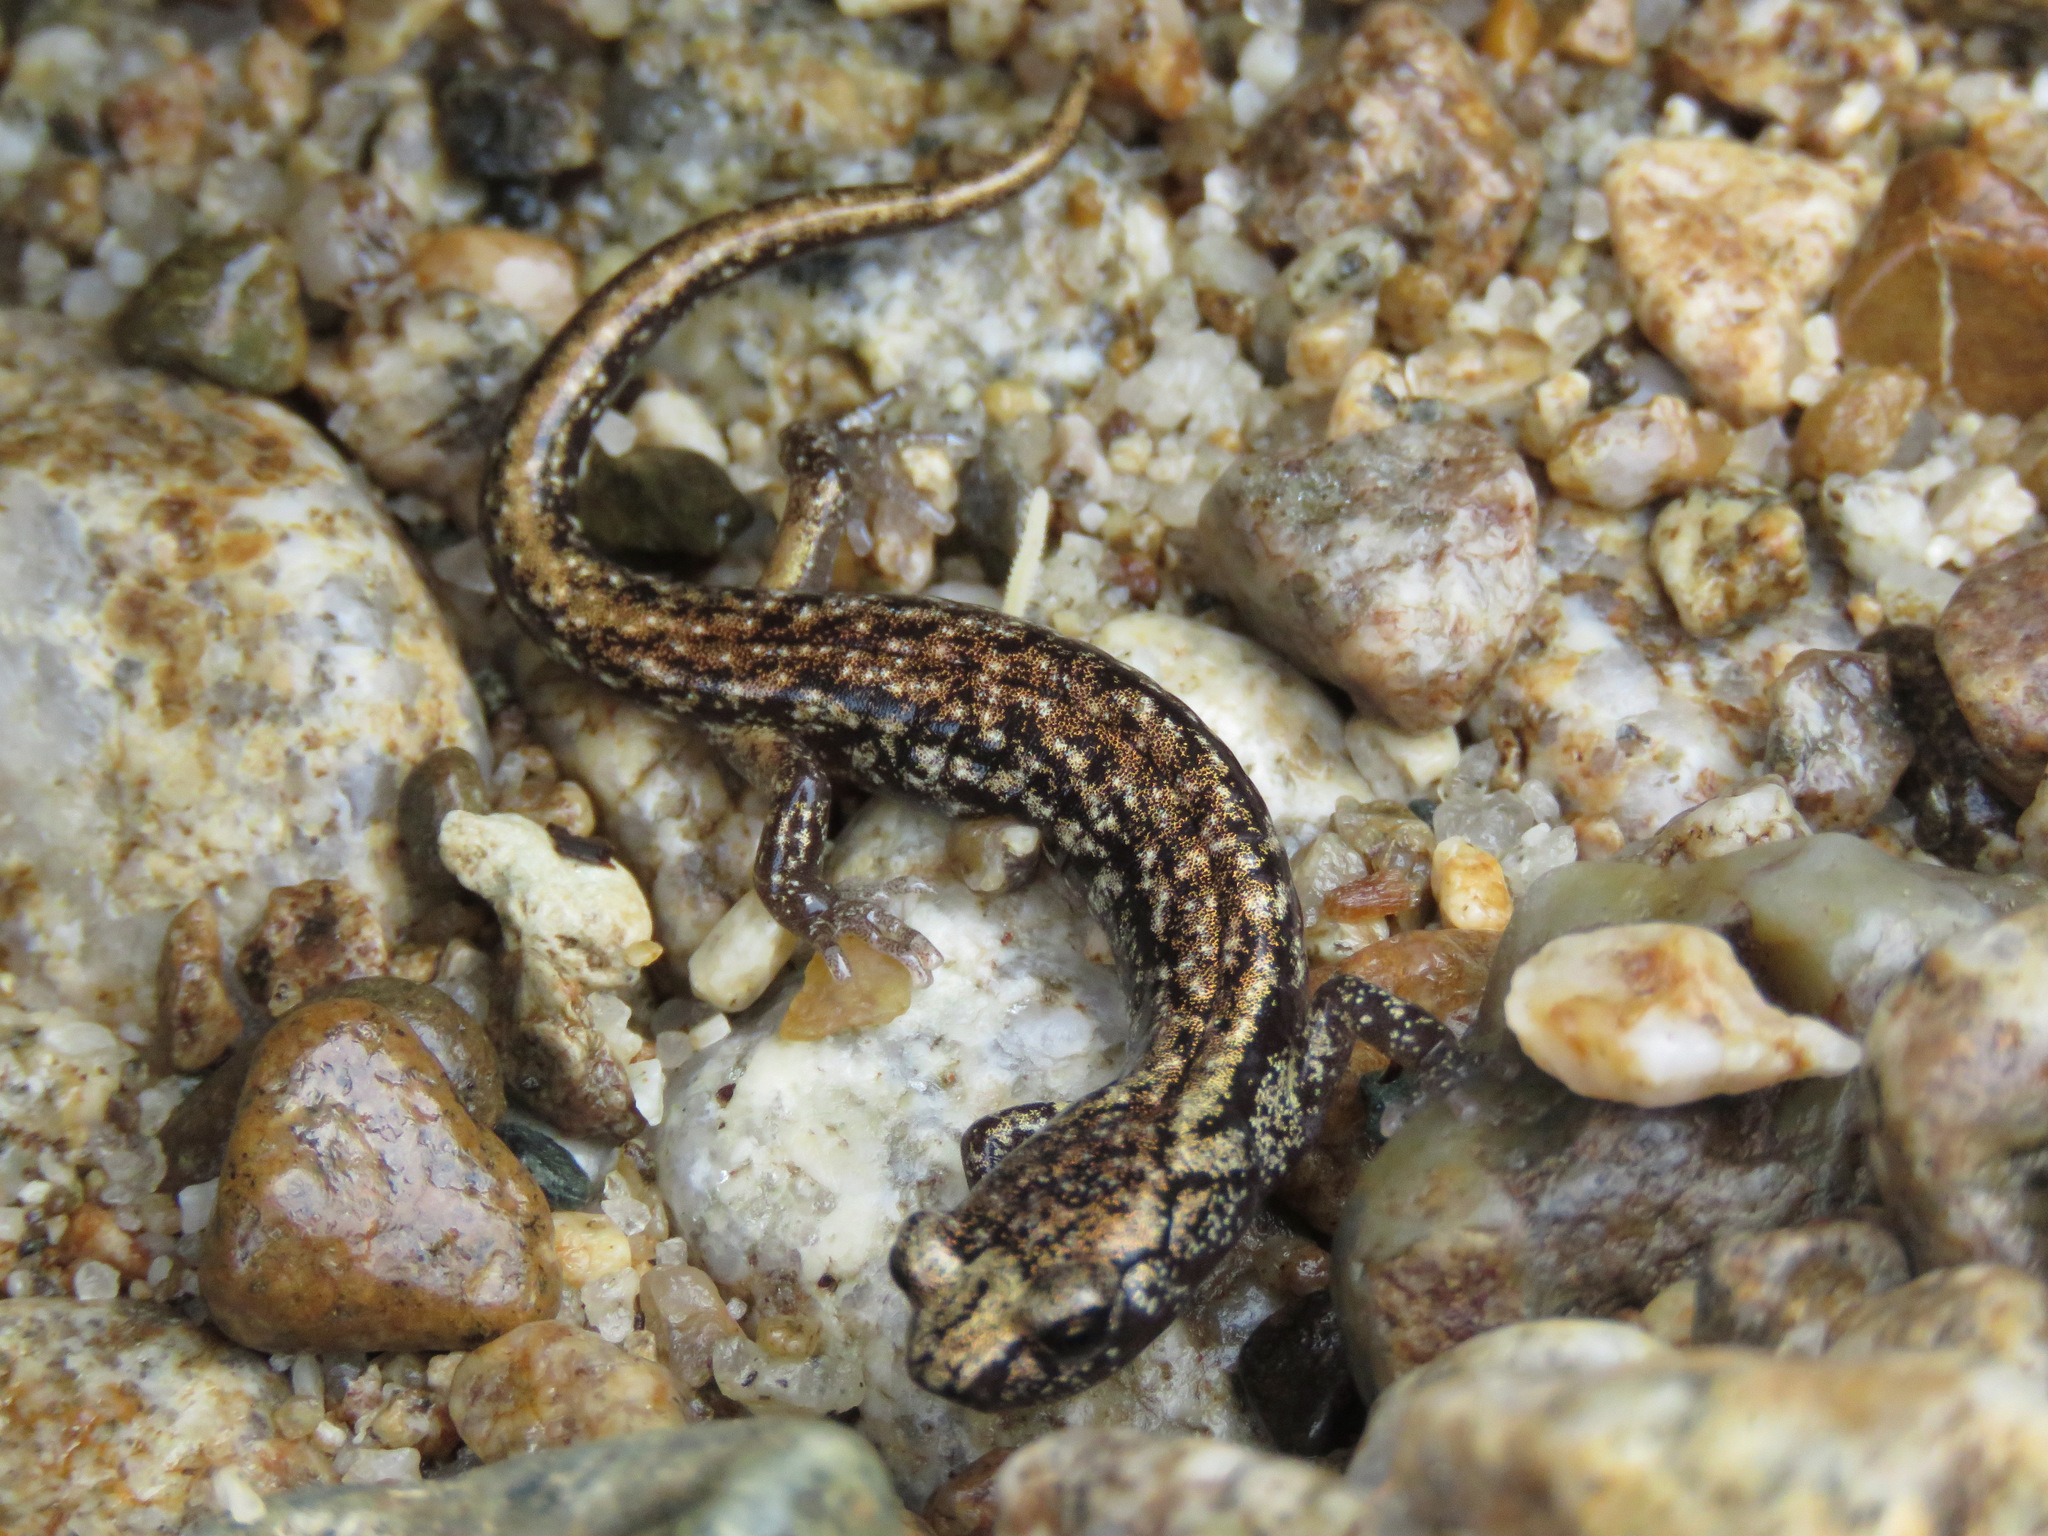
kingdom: Animalia
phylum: Chordata
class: Amphibia
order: Caudata
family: Plethodontidae
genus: Aneides
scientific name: Aneides vagrans
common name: Wandering salamander
